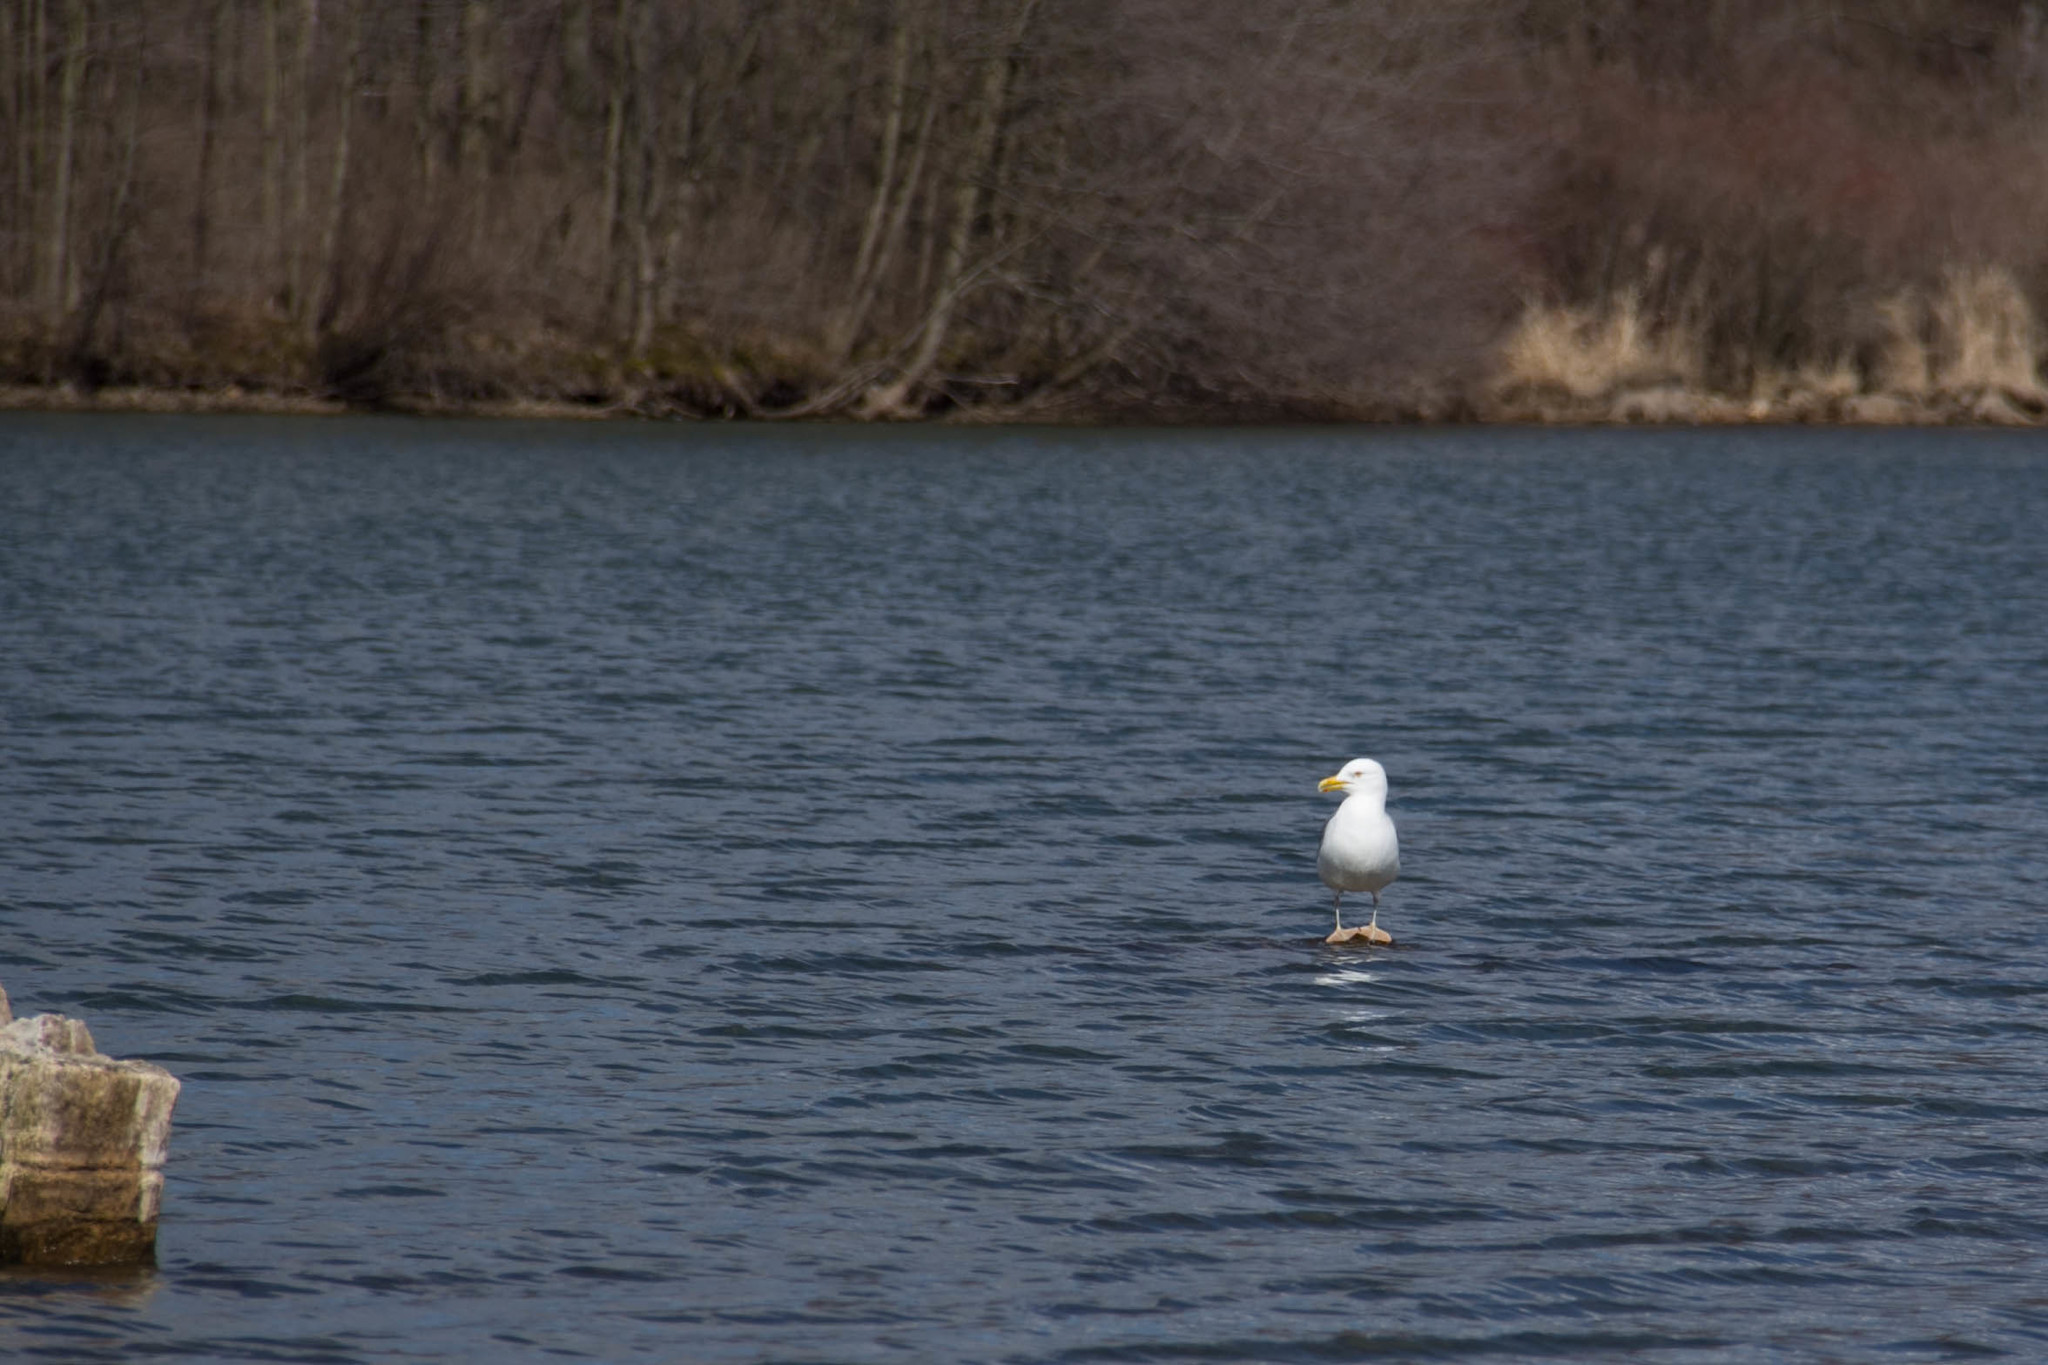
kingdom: Animalia
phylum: Chordata
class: Aves
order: Charadriiformes
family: Laridae
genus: Larus
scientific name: Larus argentatus
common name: Herring gull
